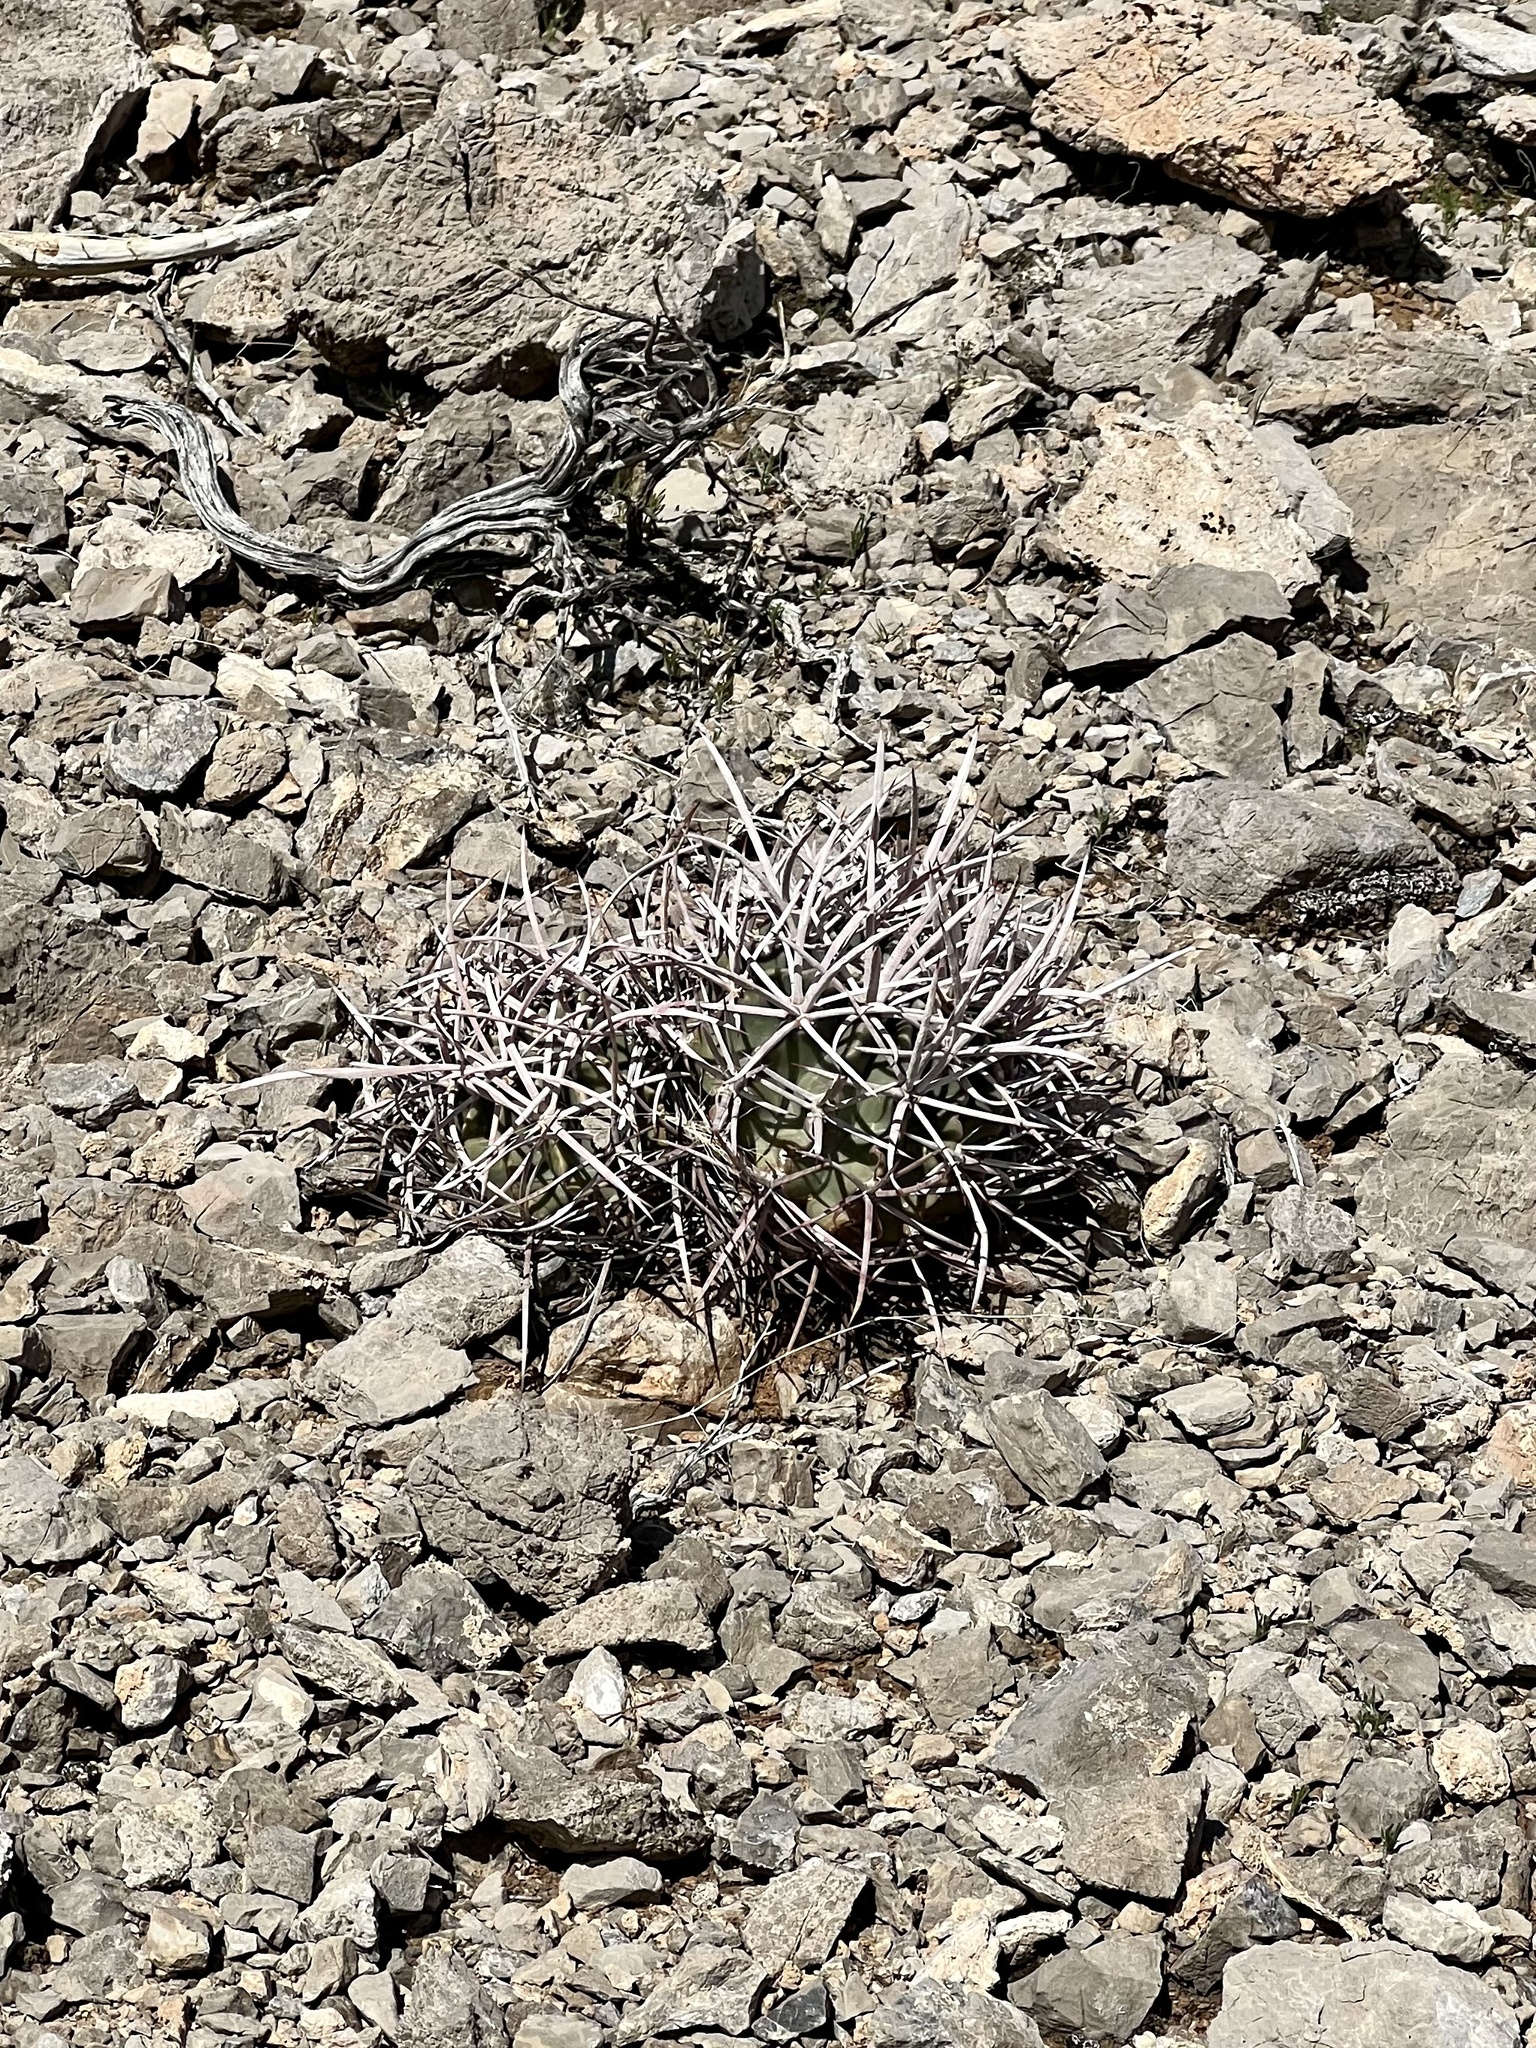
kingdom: Plantae
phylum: Tracheophyta
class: Magnoliopsida
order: Caryophyllales
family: Cactaceae
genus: Echinocactus
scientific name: Echinocactus polycephalus
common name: Cottontop cactus
